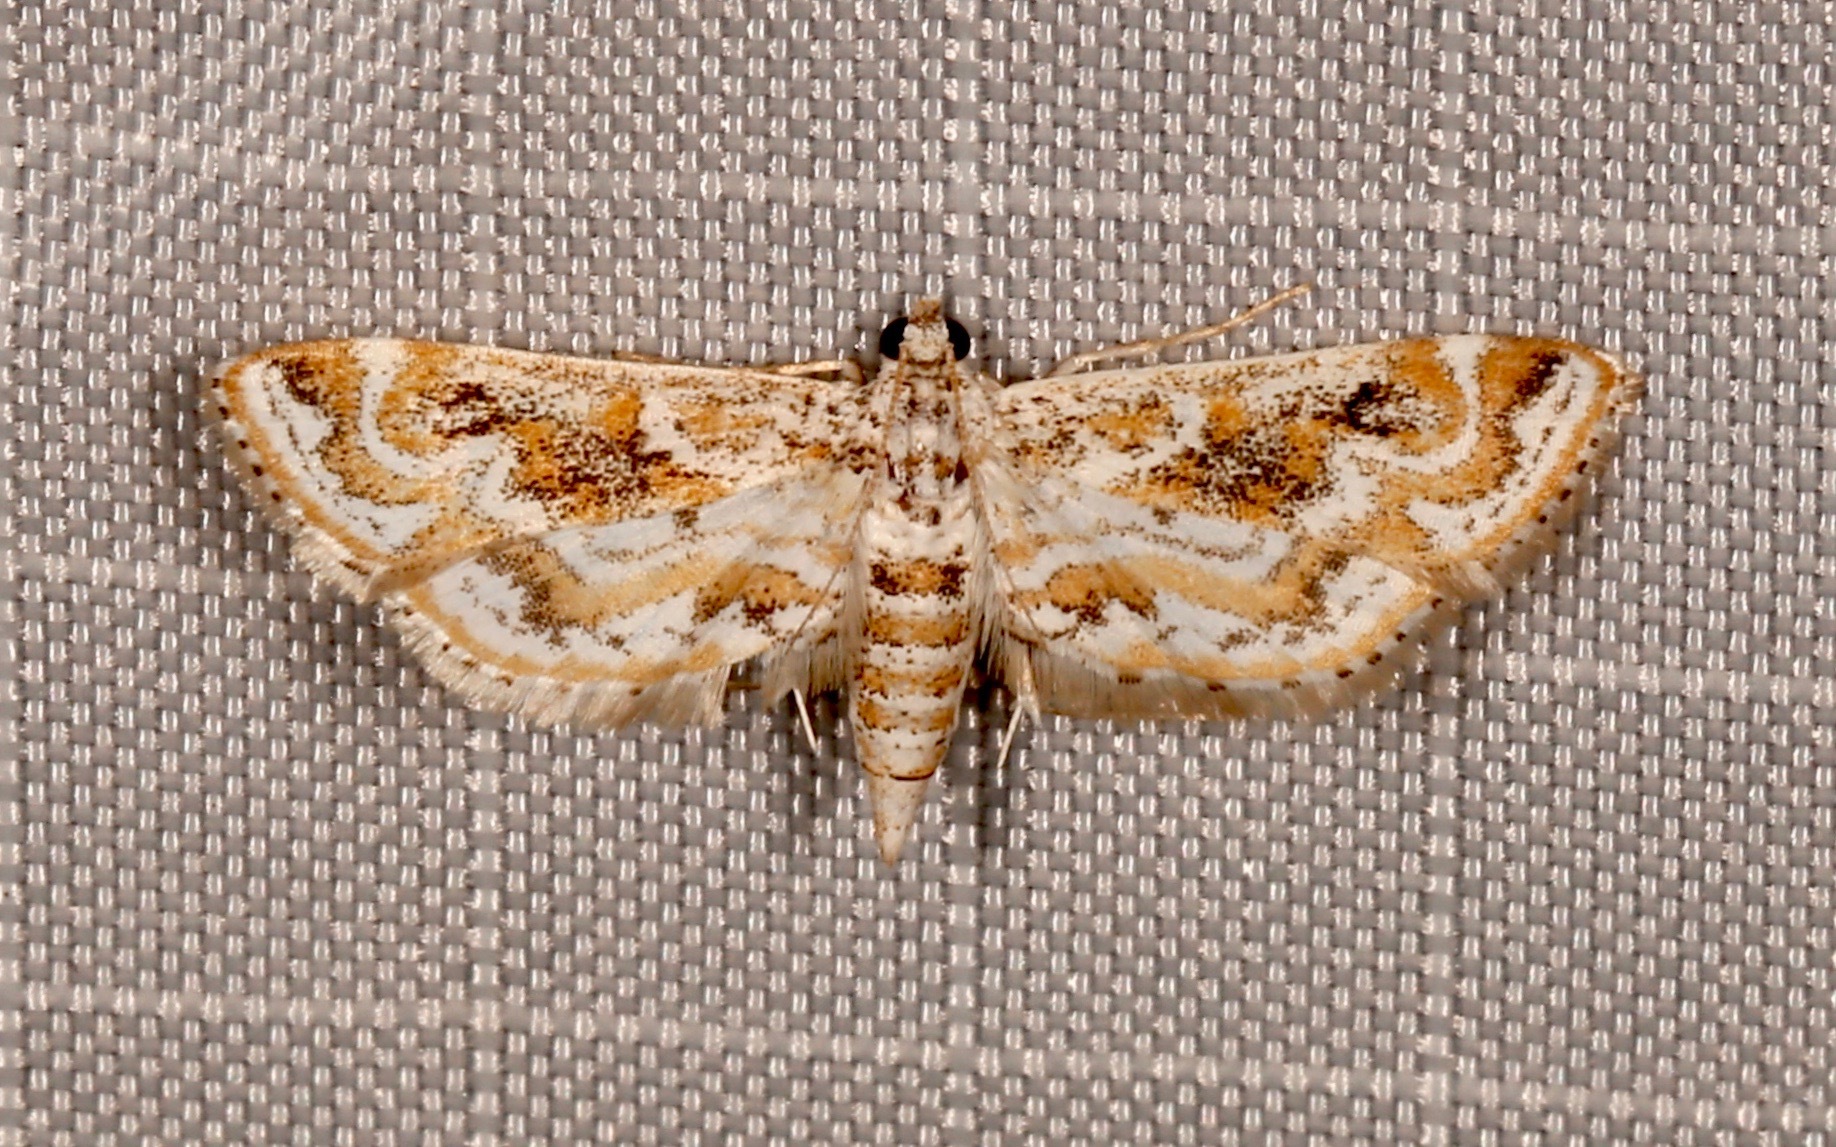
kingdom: Animalia
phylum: Arthropoda
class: Insecta
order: Lepidoptera
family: Crambidae
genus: Parapoynx
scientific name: Parapoynx diminutalis
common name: Hydrilla leafcutter
